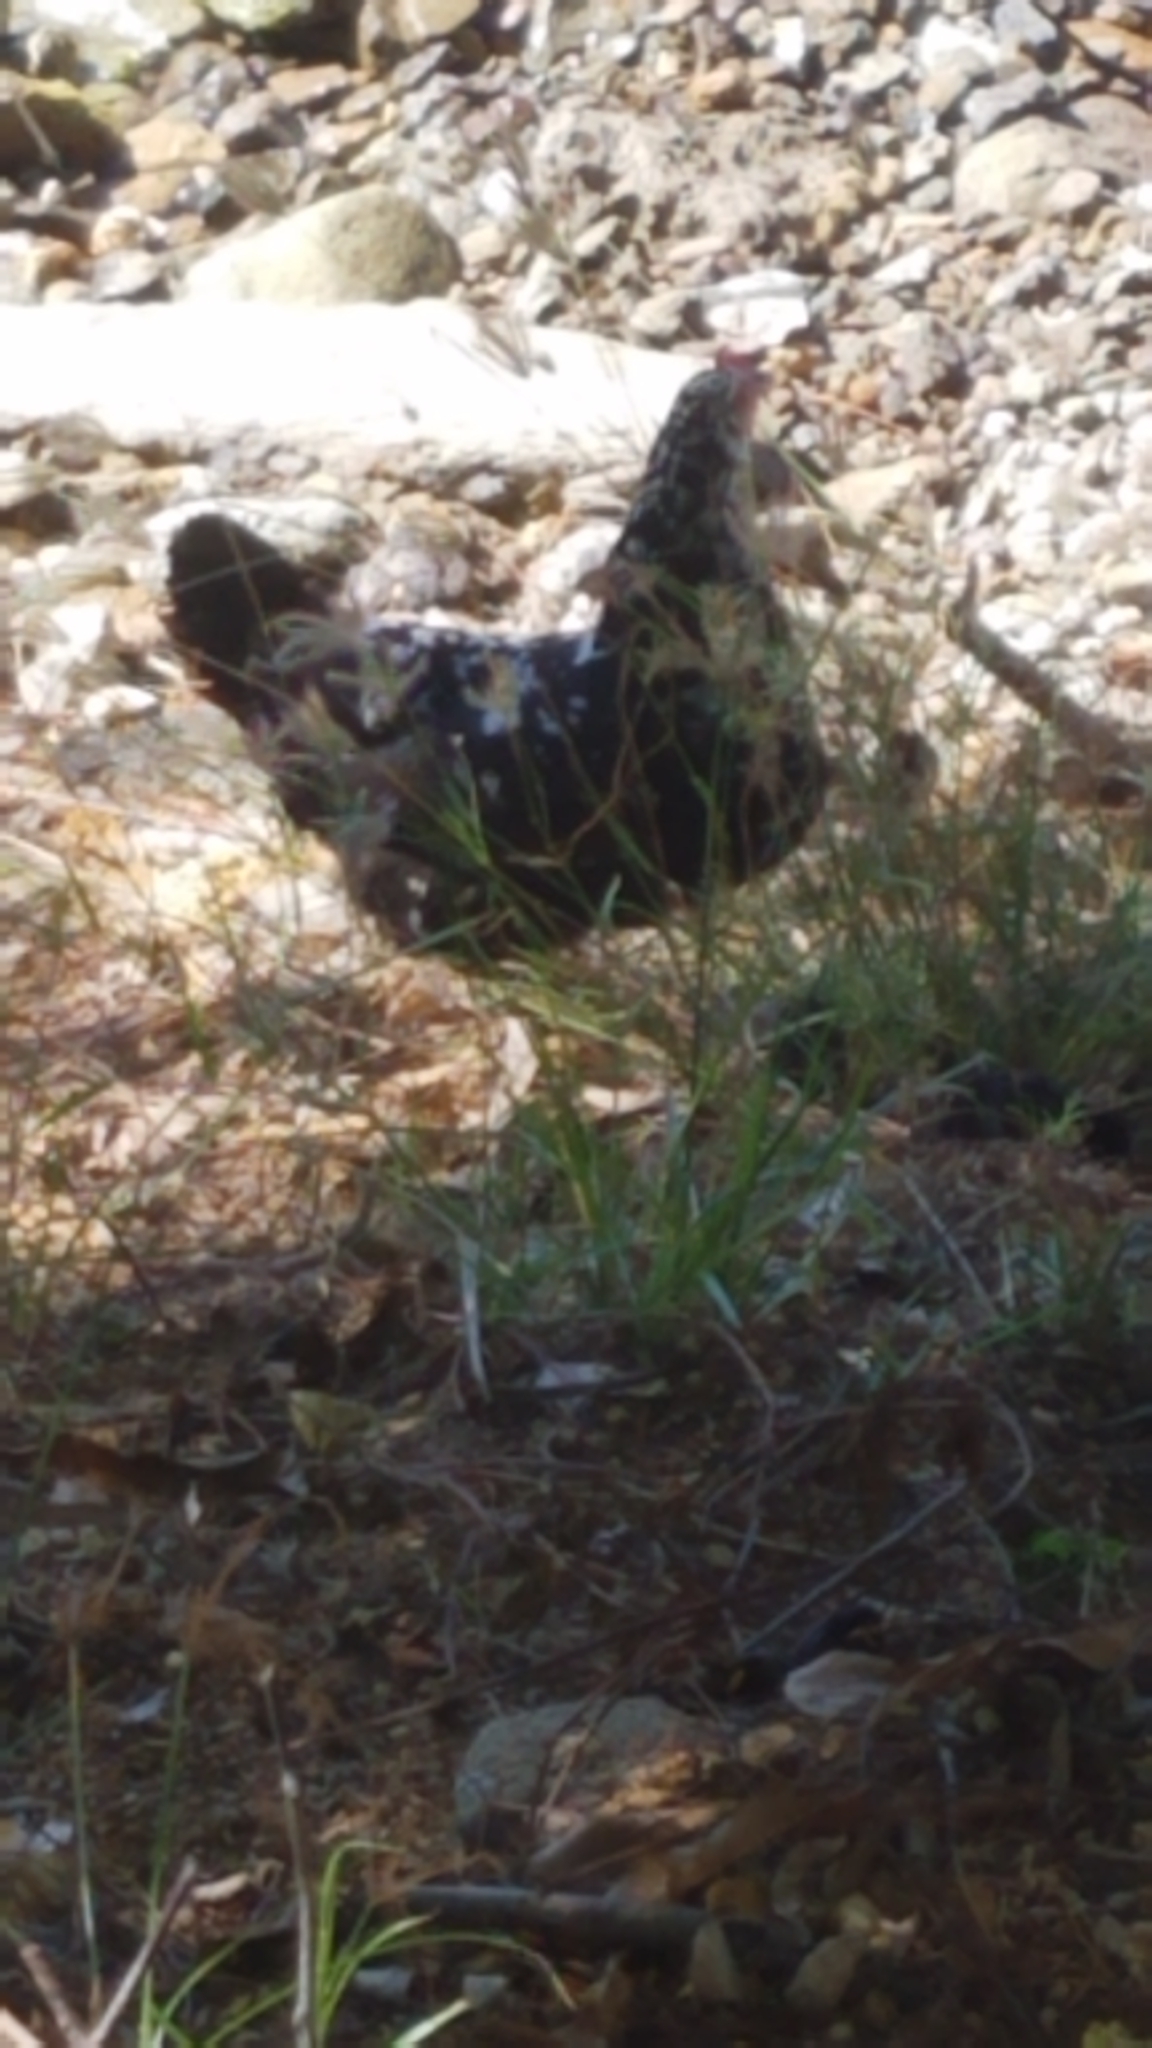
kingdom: Animalia
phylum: Chordata
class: Aves
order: Galliformes
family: Phasianidae
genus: Gallus
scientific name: Gallus gallus
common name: Red junglefowl
